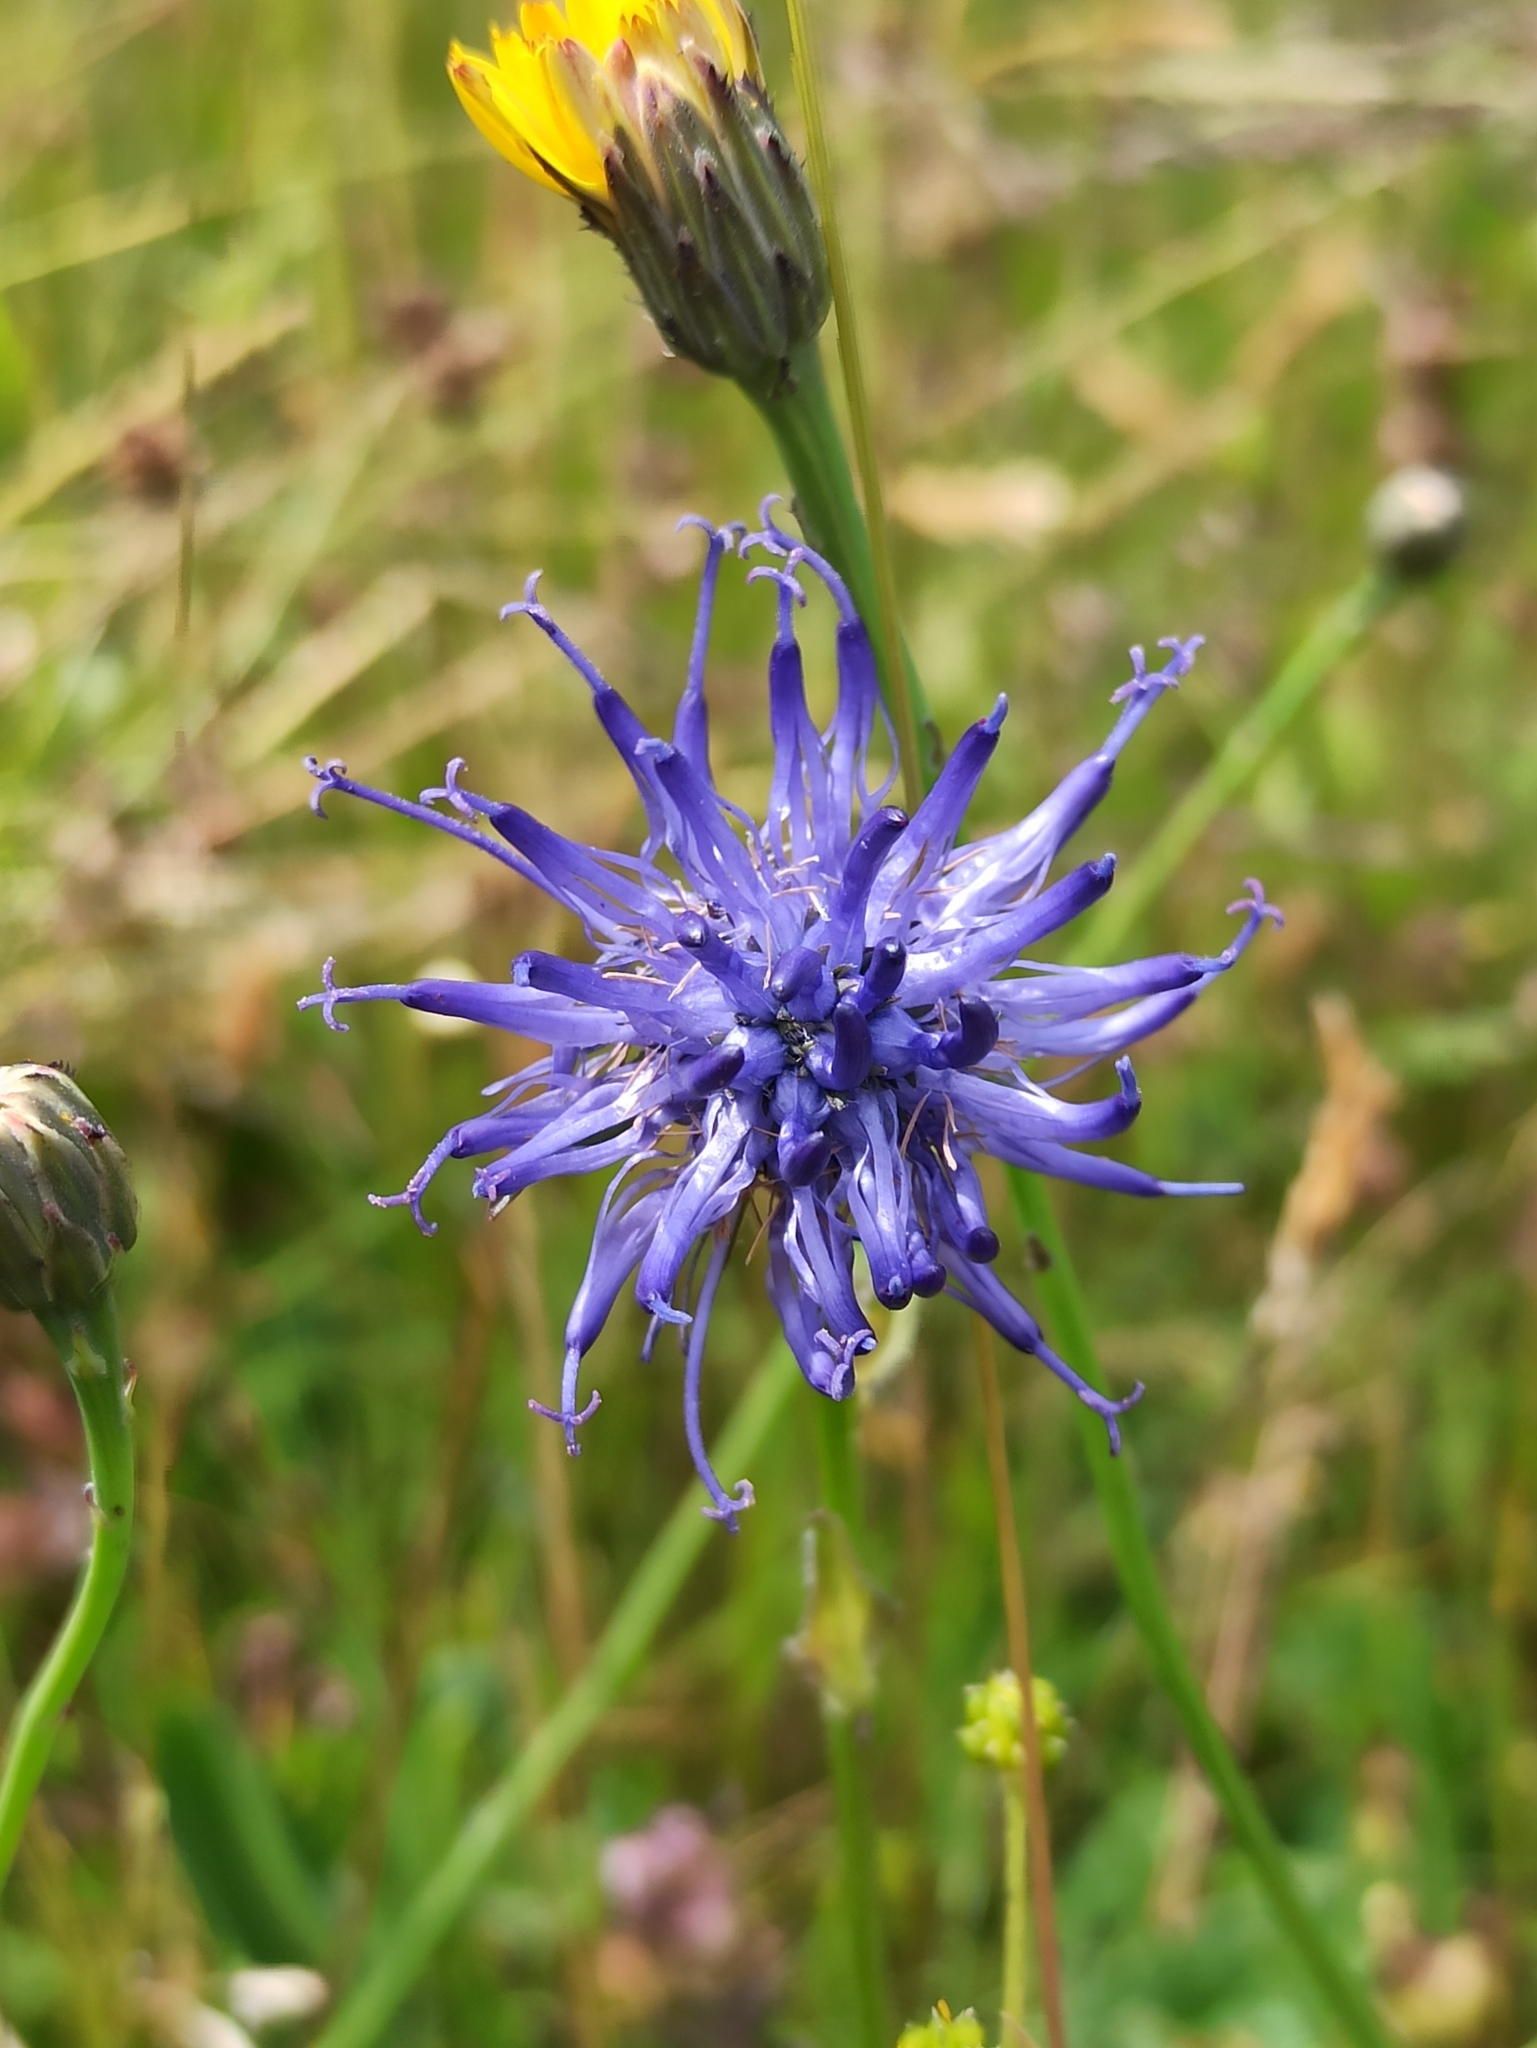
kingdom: Plantae
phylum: Tracheophyta
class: Magnoliopsida
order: Asterales
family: Campanulaceae
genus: Phyteuma
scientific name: Phyteuma orbiculare
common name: Round-headed rampion
